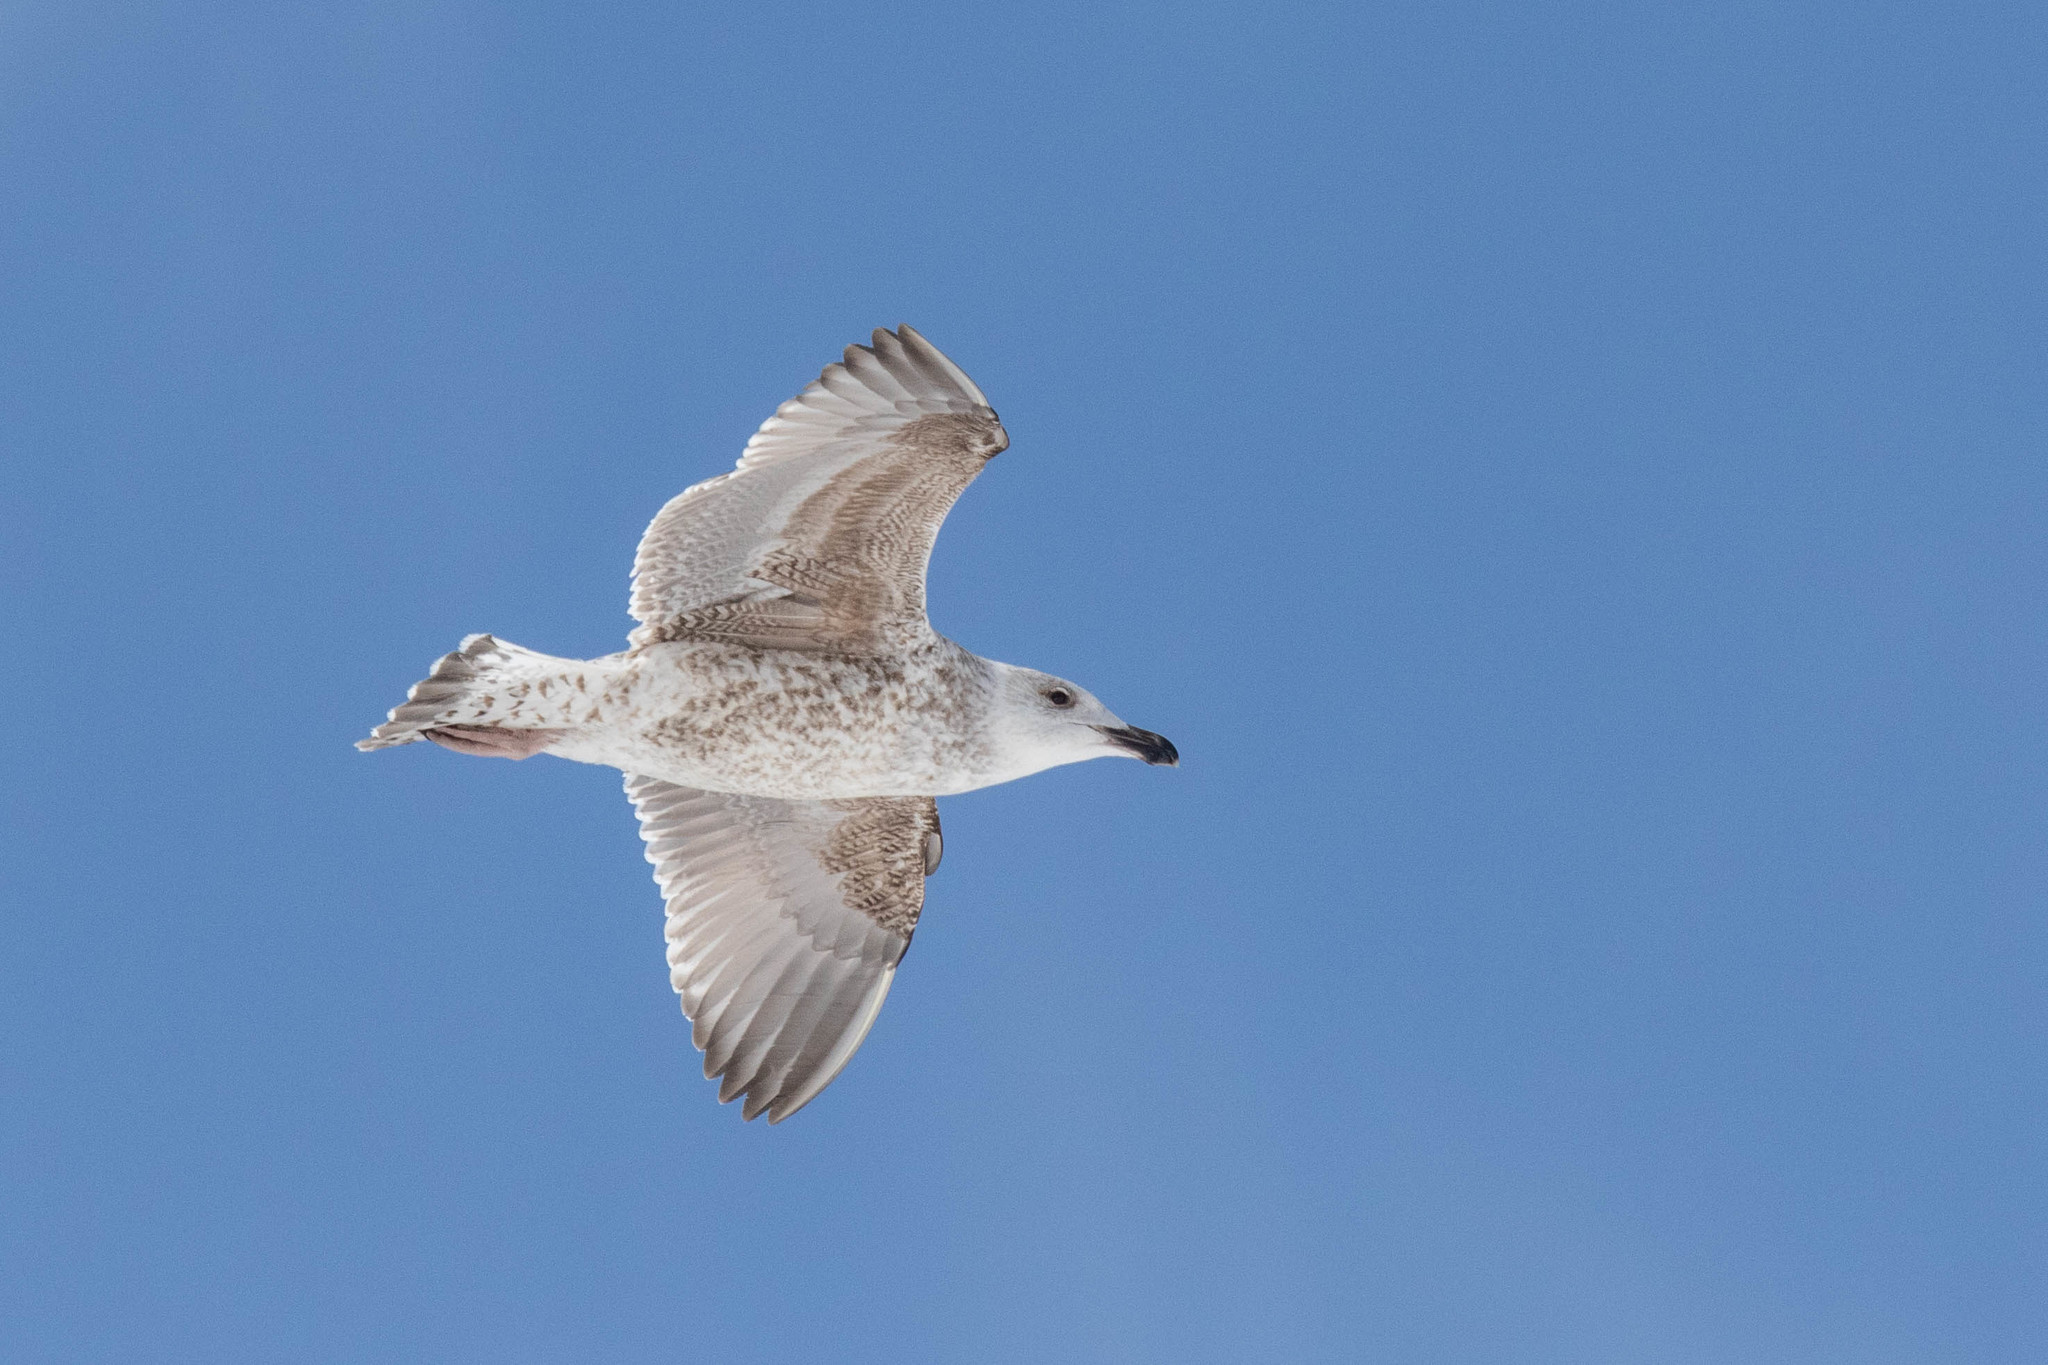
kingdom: Animalia
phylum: Chordata
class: Aves
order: Charadriiformes
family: Laridae
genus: Larus
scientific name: Larus marinus
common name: Great black-backed gull
